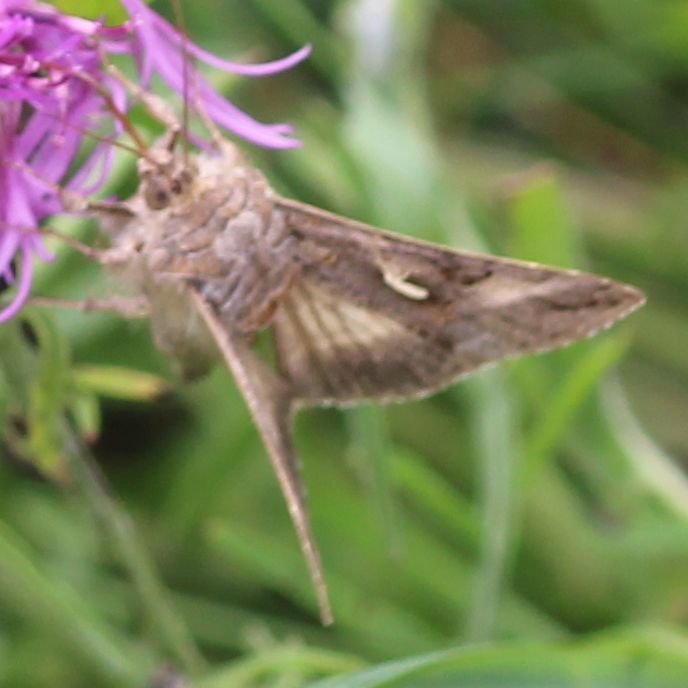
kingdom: Animalia
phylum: Arthropoda
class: Insecta
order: Lepidoptera
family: Noctuidae
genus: Autographa
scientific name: Autographa gamma
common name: Silver y
